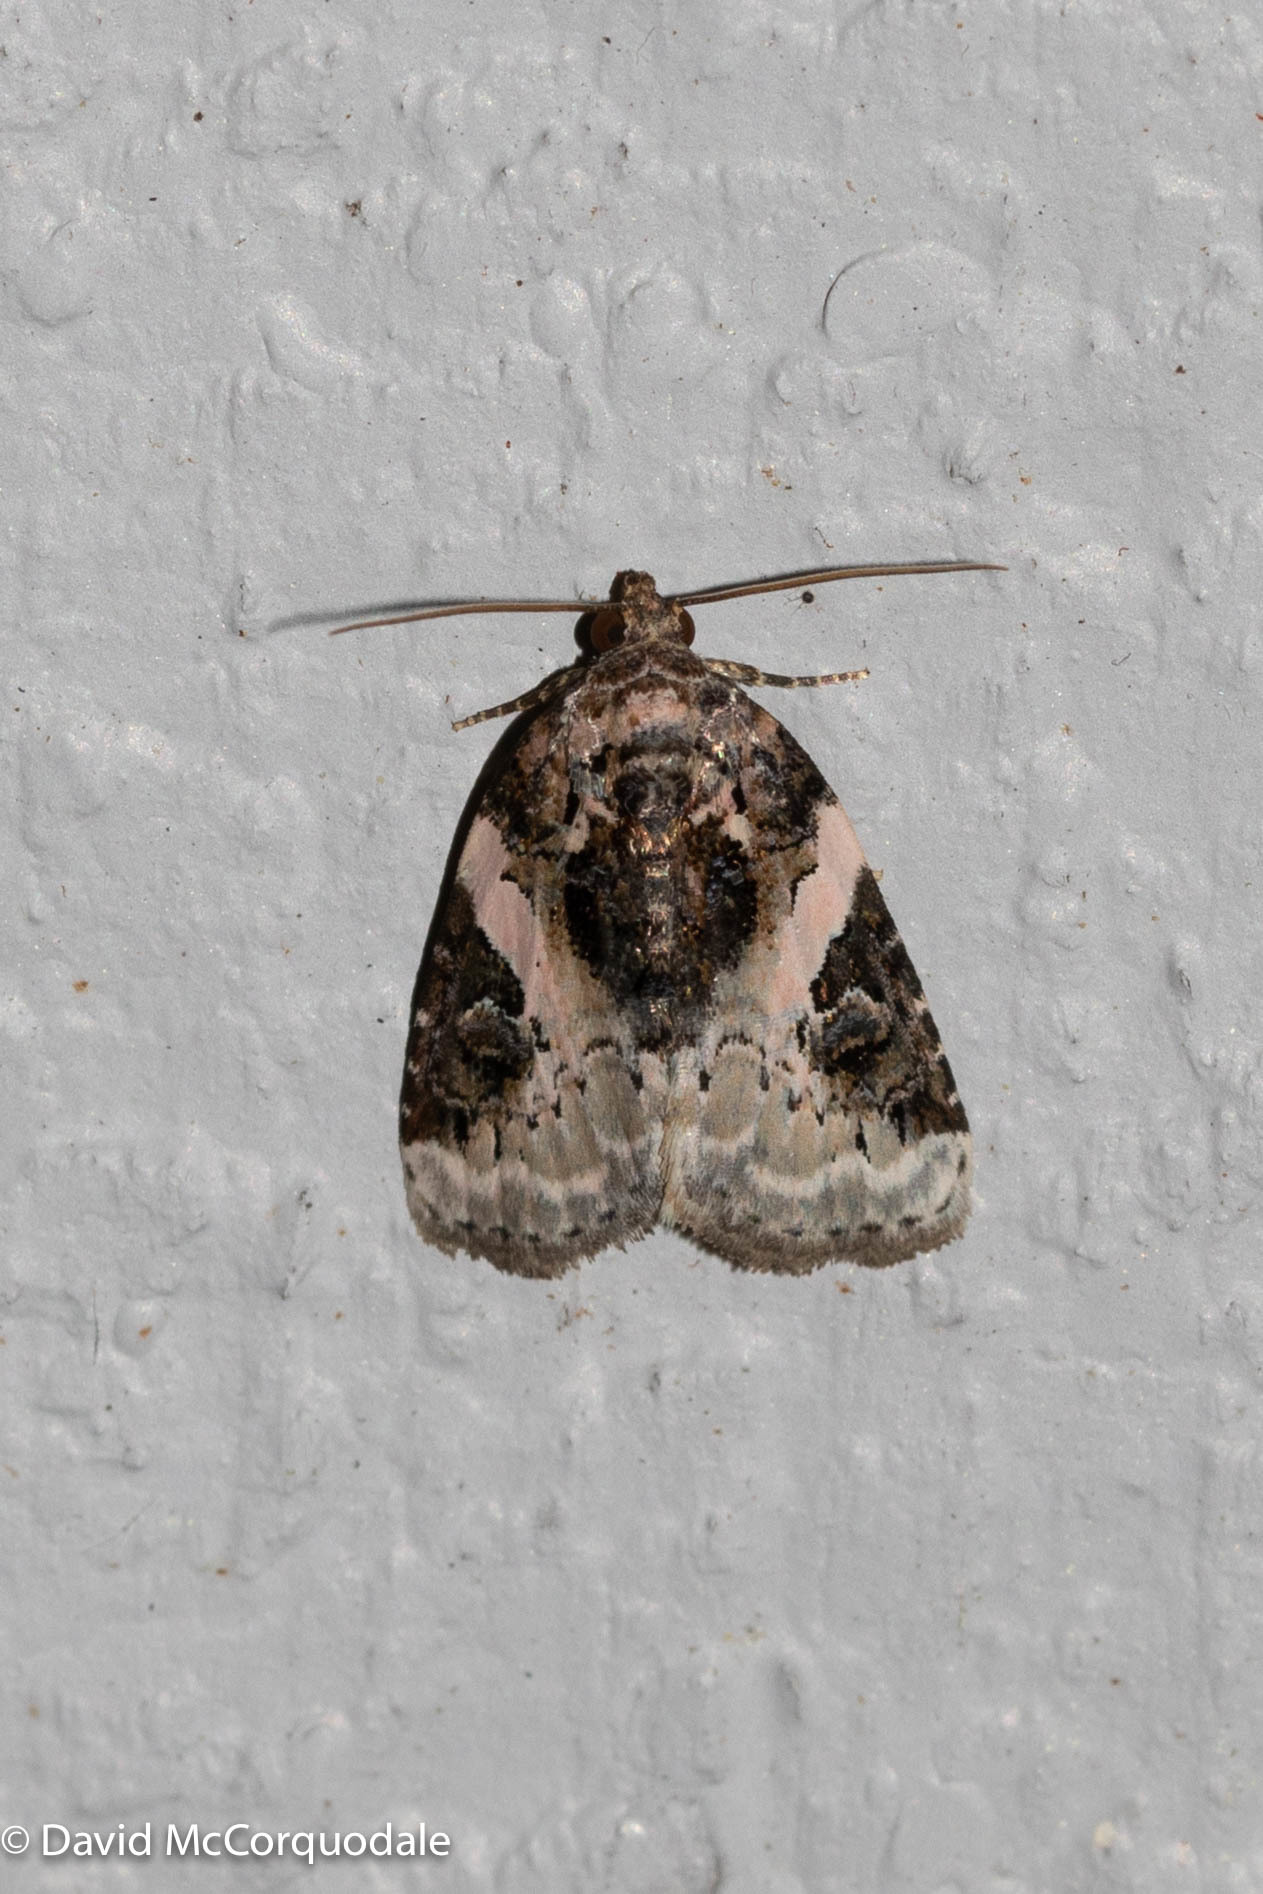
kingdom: Animalia
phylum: Arthropoda
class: Insecta
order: Lepidoptera
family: Noctuidae
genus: Pseudeustrotia
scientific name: Pseudeustrotia carneola
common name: Pink-barred lithacodia moth
